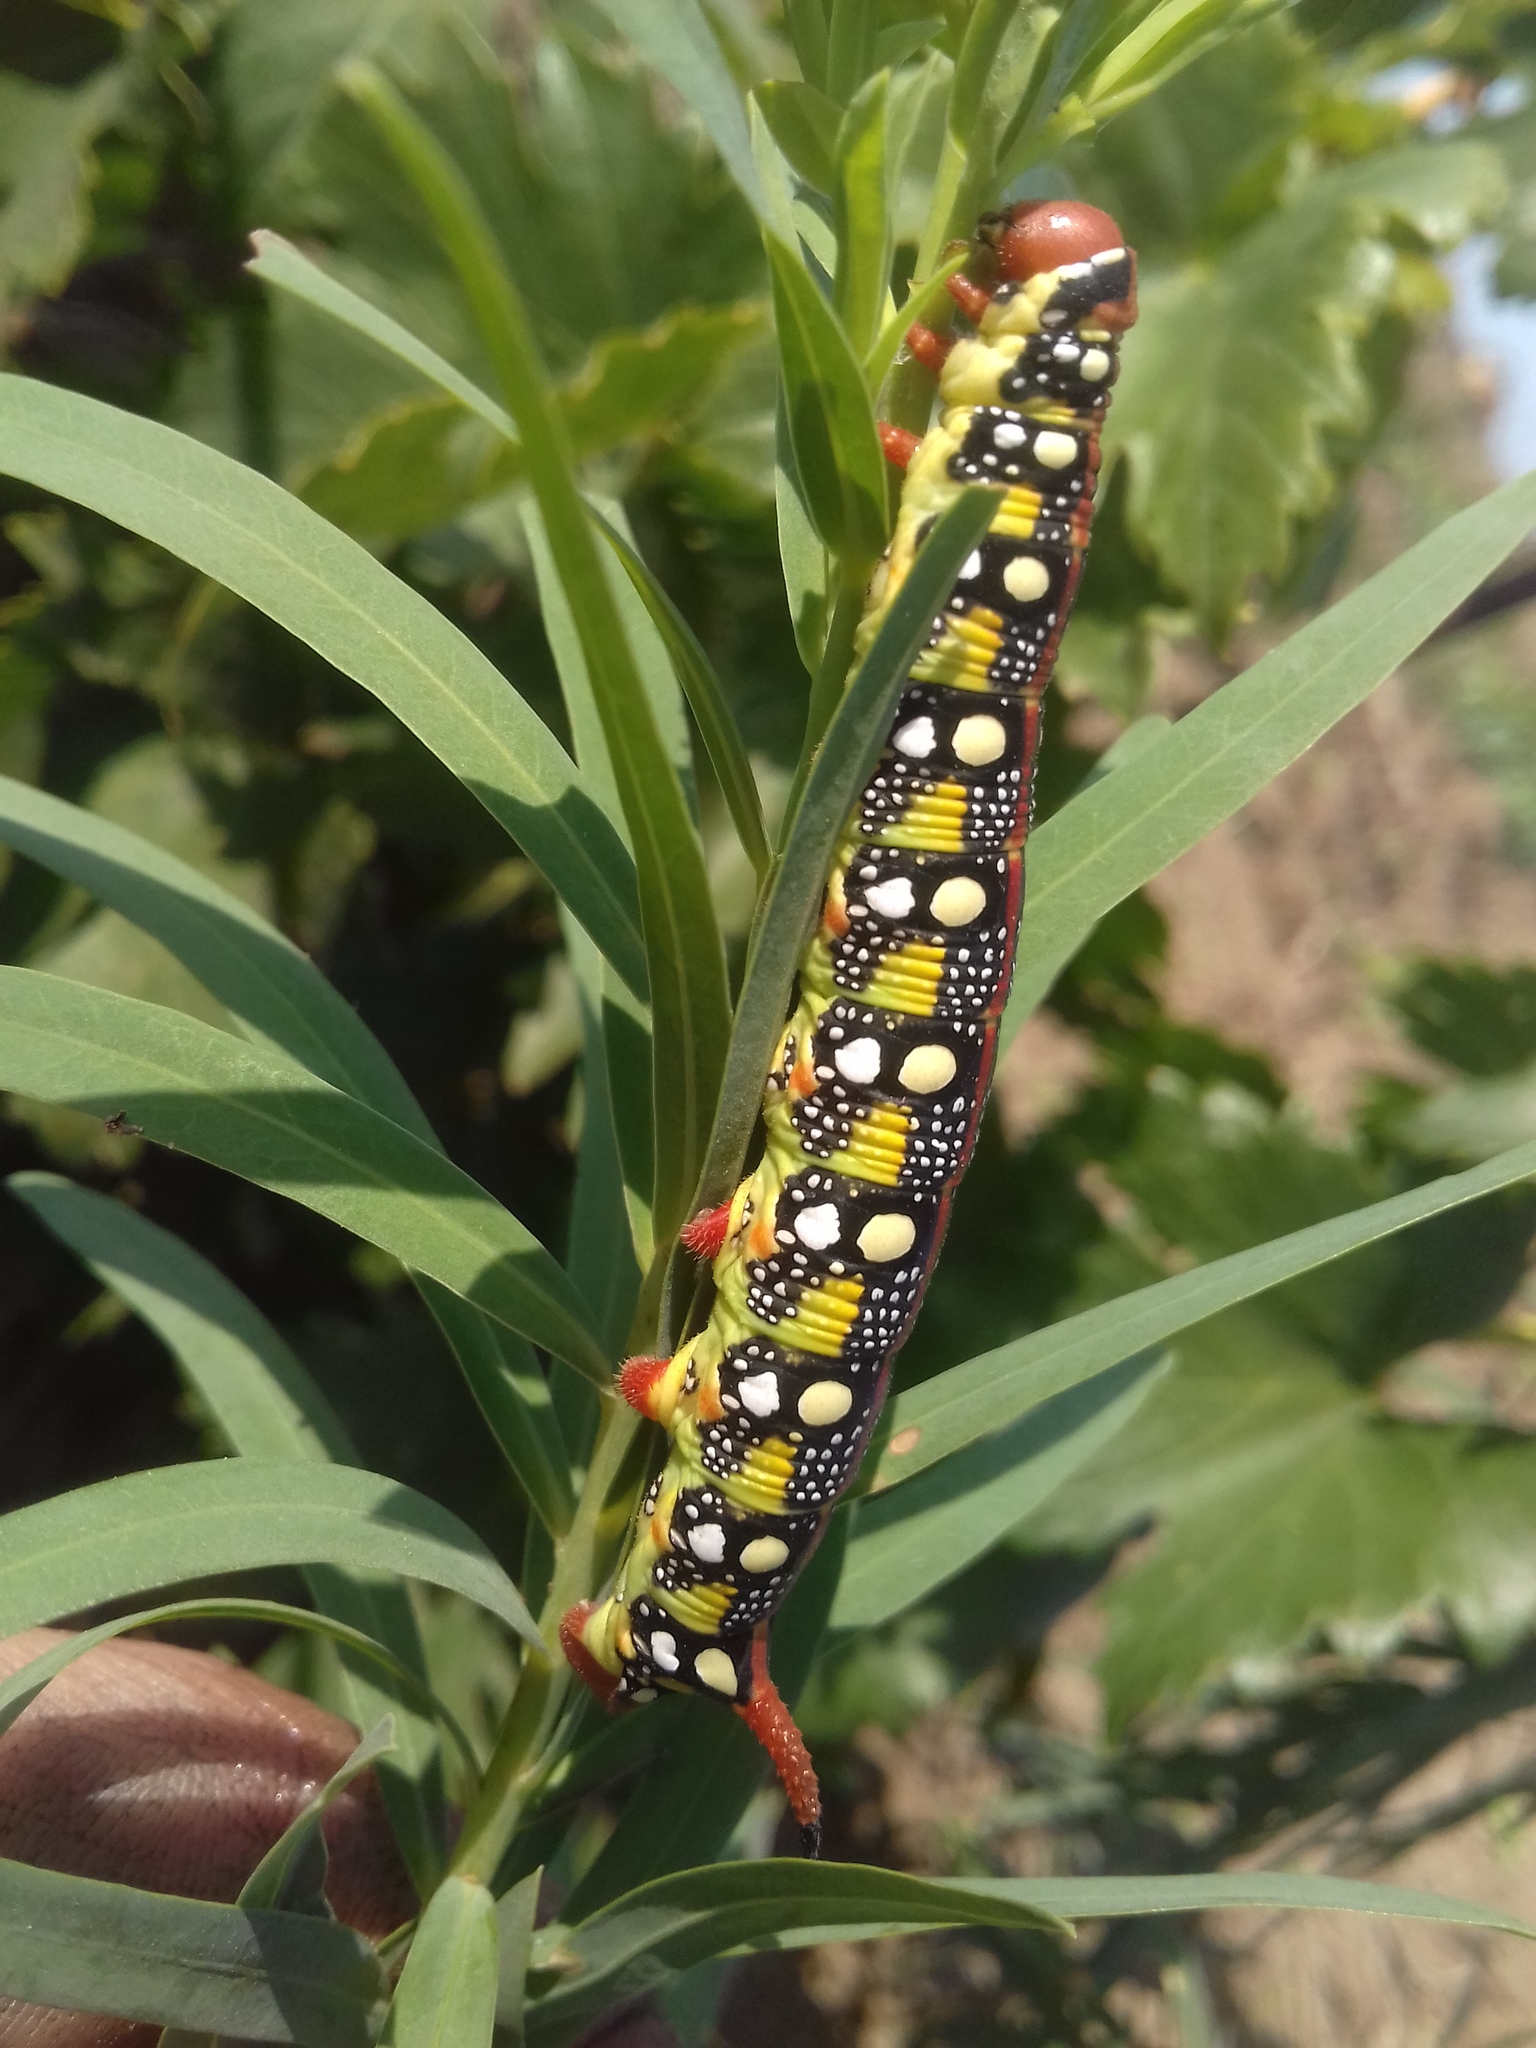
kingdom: Animalia
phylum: Arthropoda
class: Insecta
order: Lepidoptera
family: Sphingidae
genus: Hyles
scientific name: Hyles euphorbiae
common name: Spurge hawk-moth
